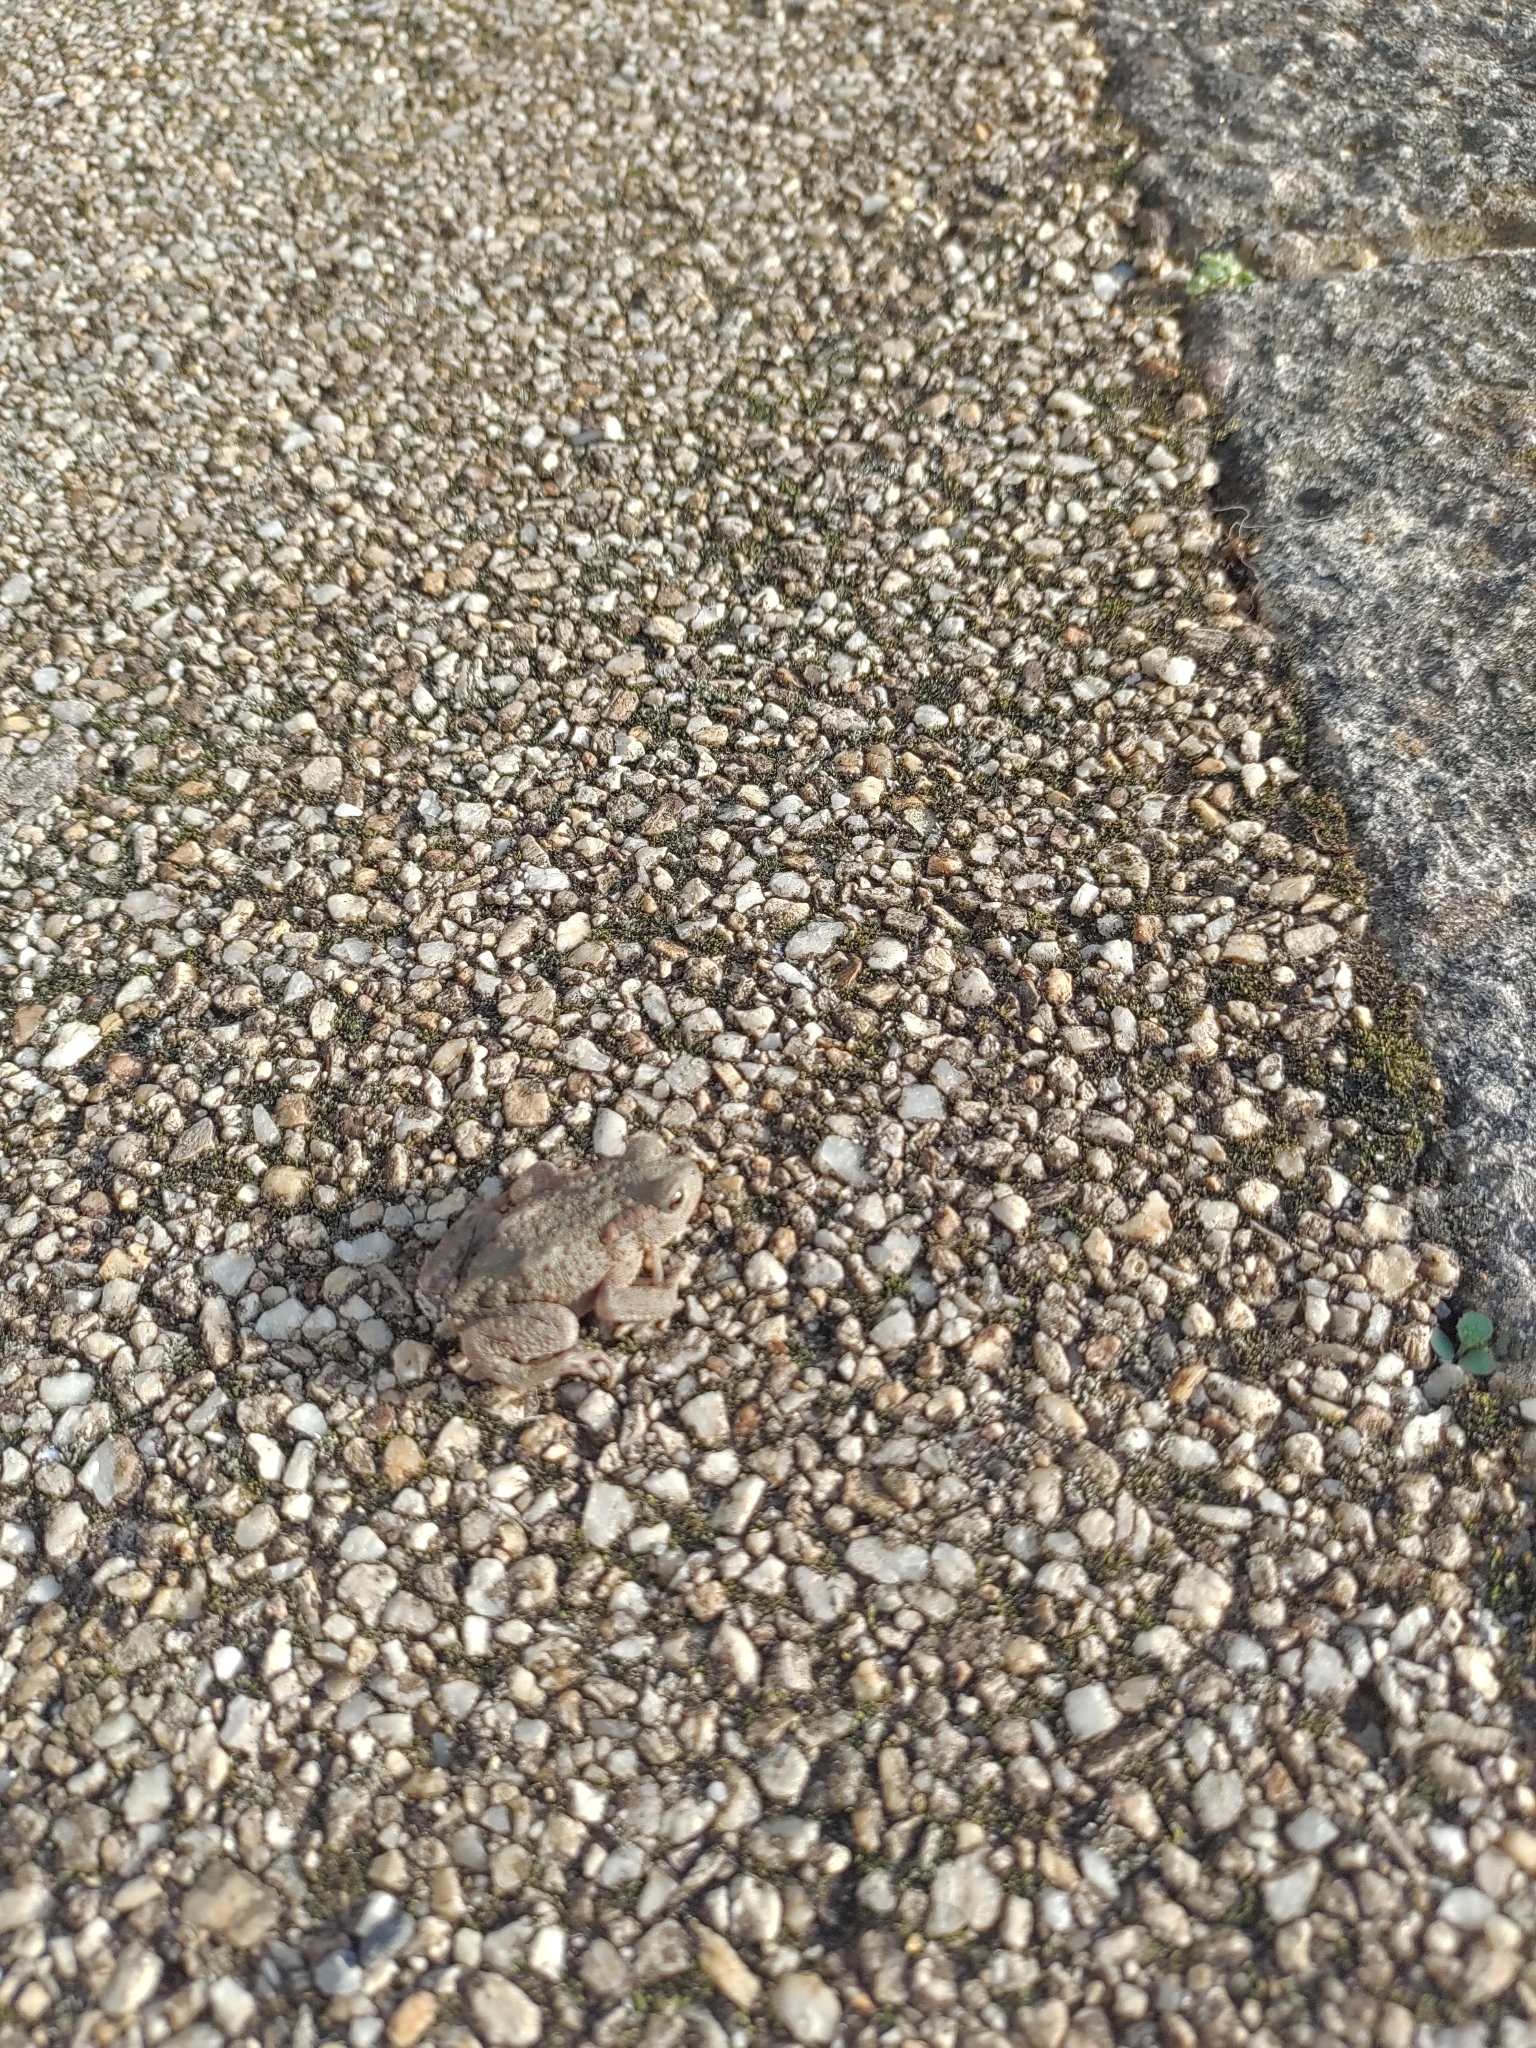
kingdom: Animalia
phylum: Chordata
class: Amphibia
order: Anura
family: Bufonidae
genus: Bufo
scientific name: Bufo bufo
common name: Common toad
